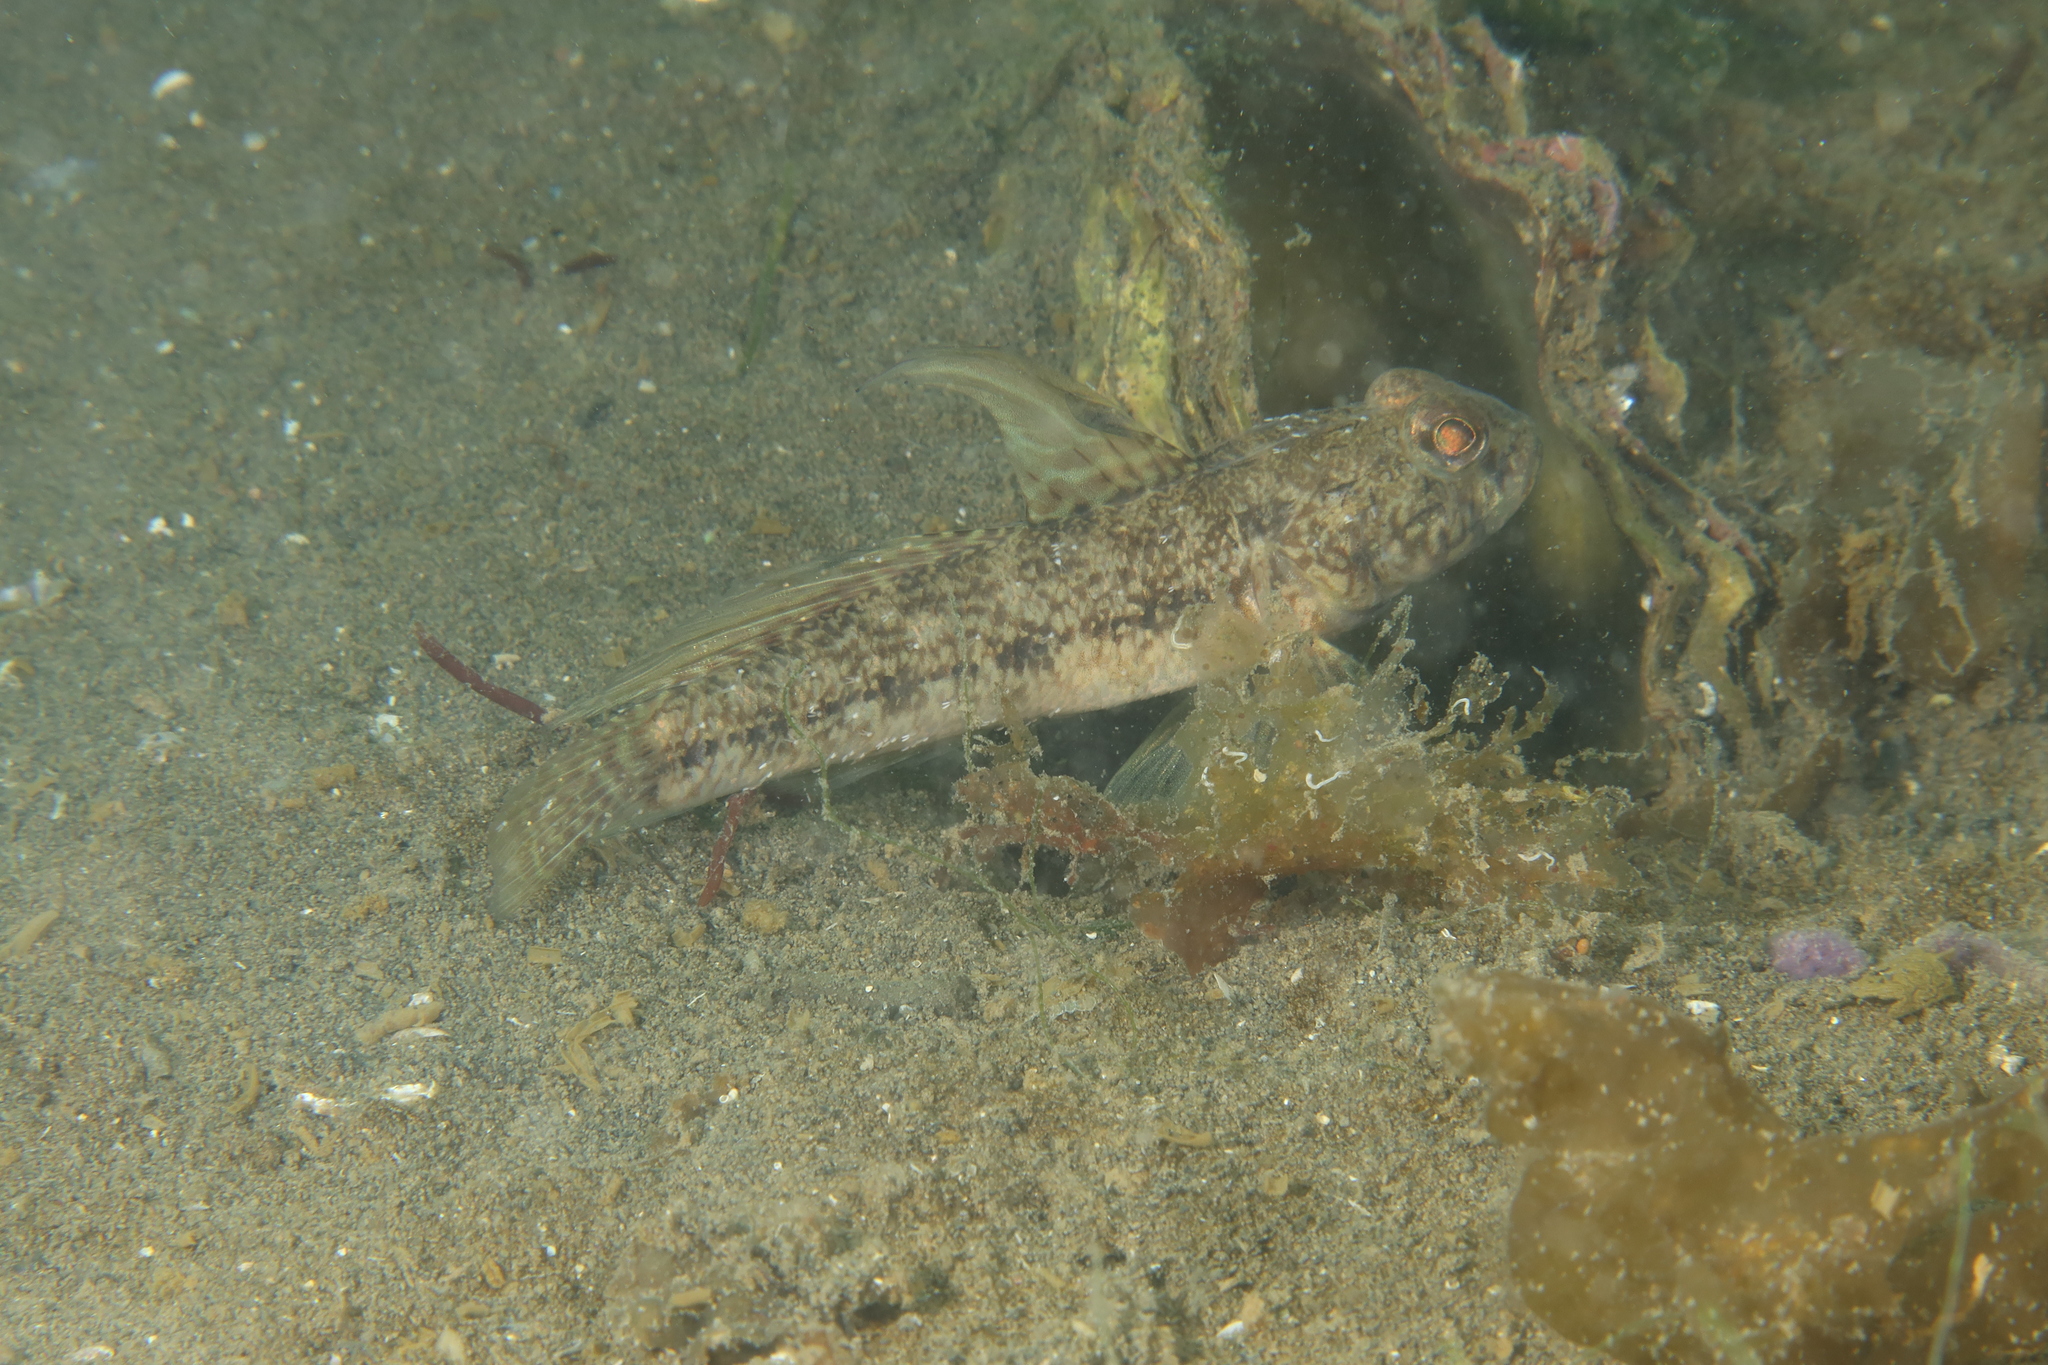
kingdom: Animalia
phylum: Chordata
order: Perciformes
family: Gobiidae
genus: Gobius
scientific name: Gobius niger
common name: Black goby
